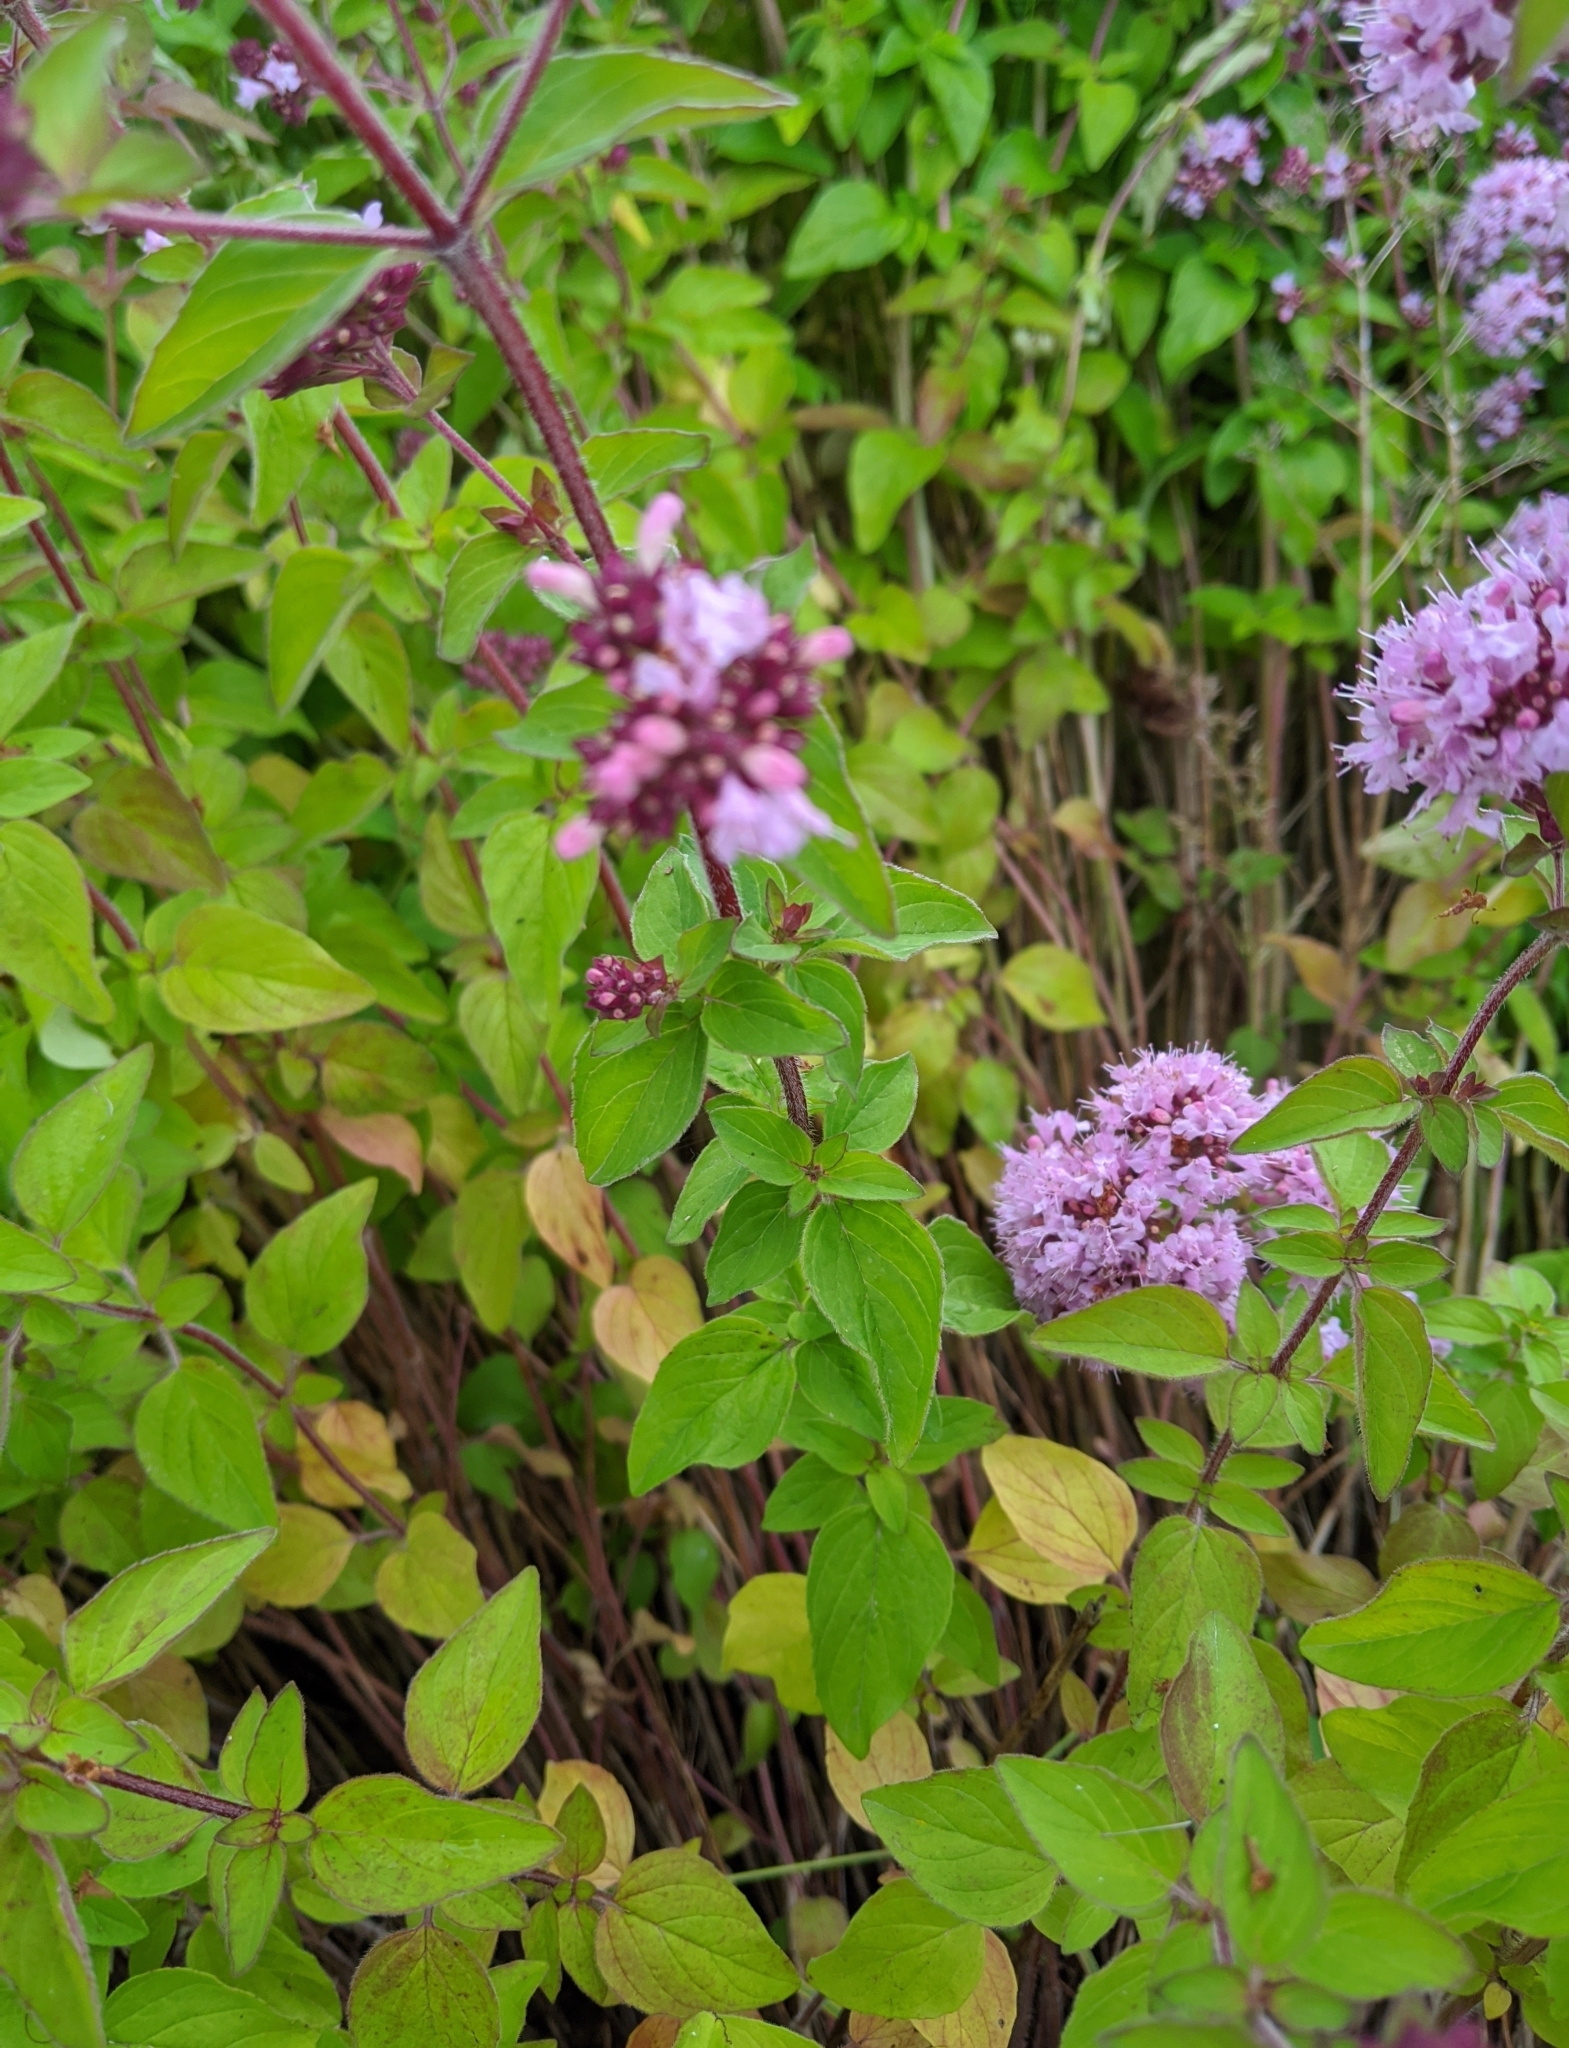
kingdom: Plantae
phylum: Tracheophyta
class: Magnoliopsida
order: Lamiales
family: Lamiaceae
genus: Origanum
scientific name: Origanum vulgare
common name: Wild marjoram
